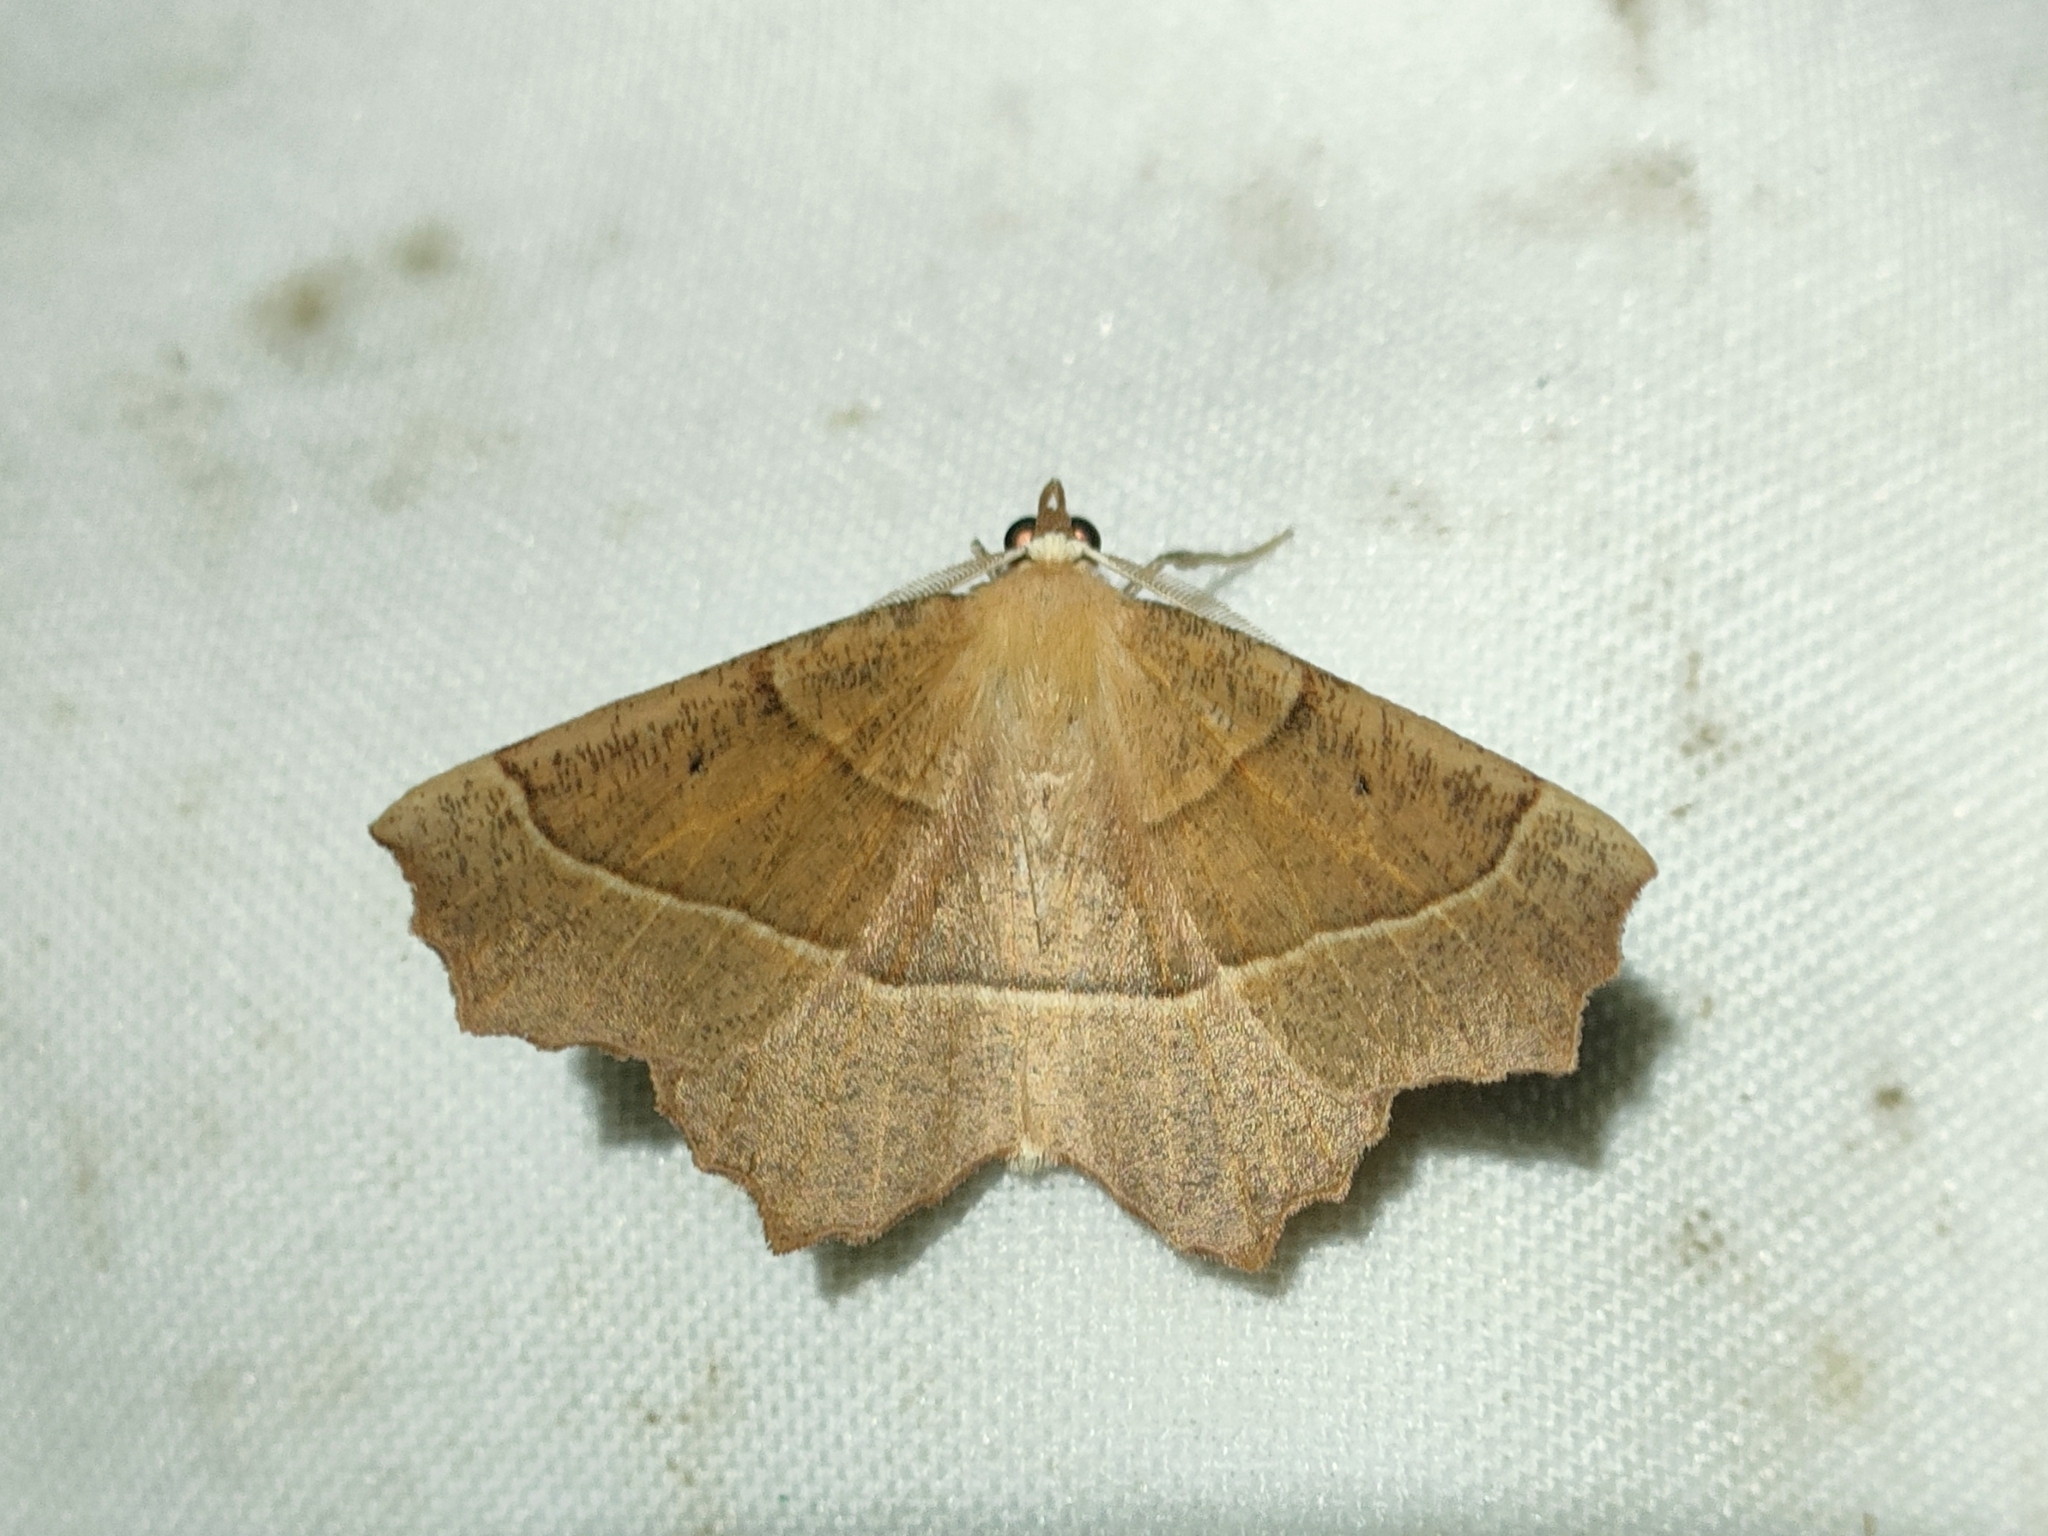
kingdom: Animalia
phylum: Arthropoda
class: Insecta
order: Lepidoptera
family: Geometridae
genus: Gerinia
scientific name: Gerinia honoraria
